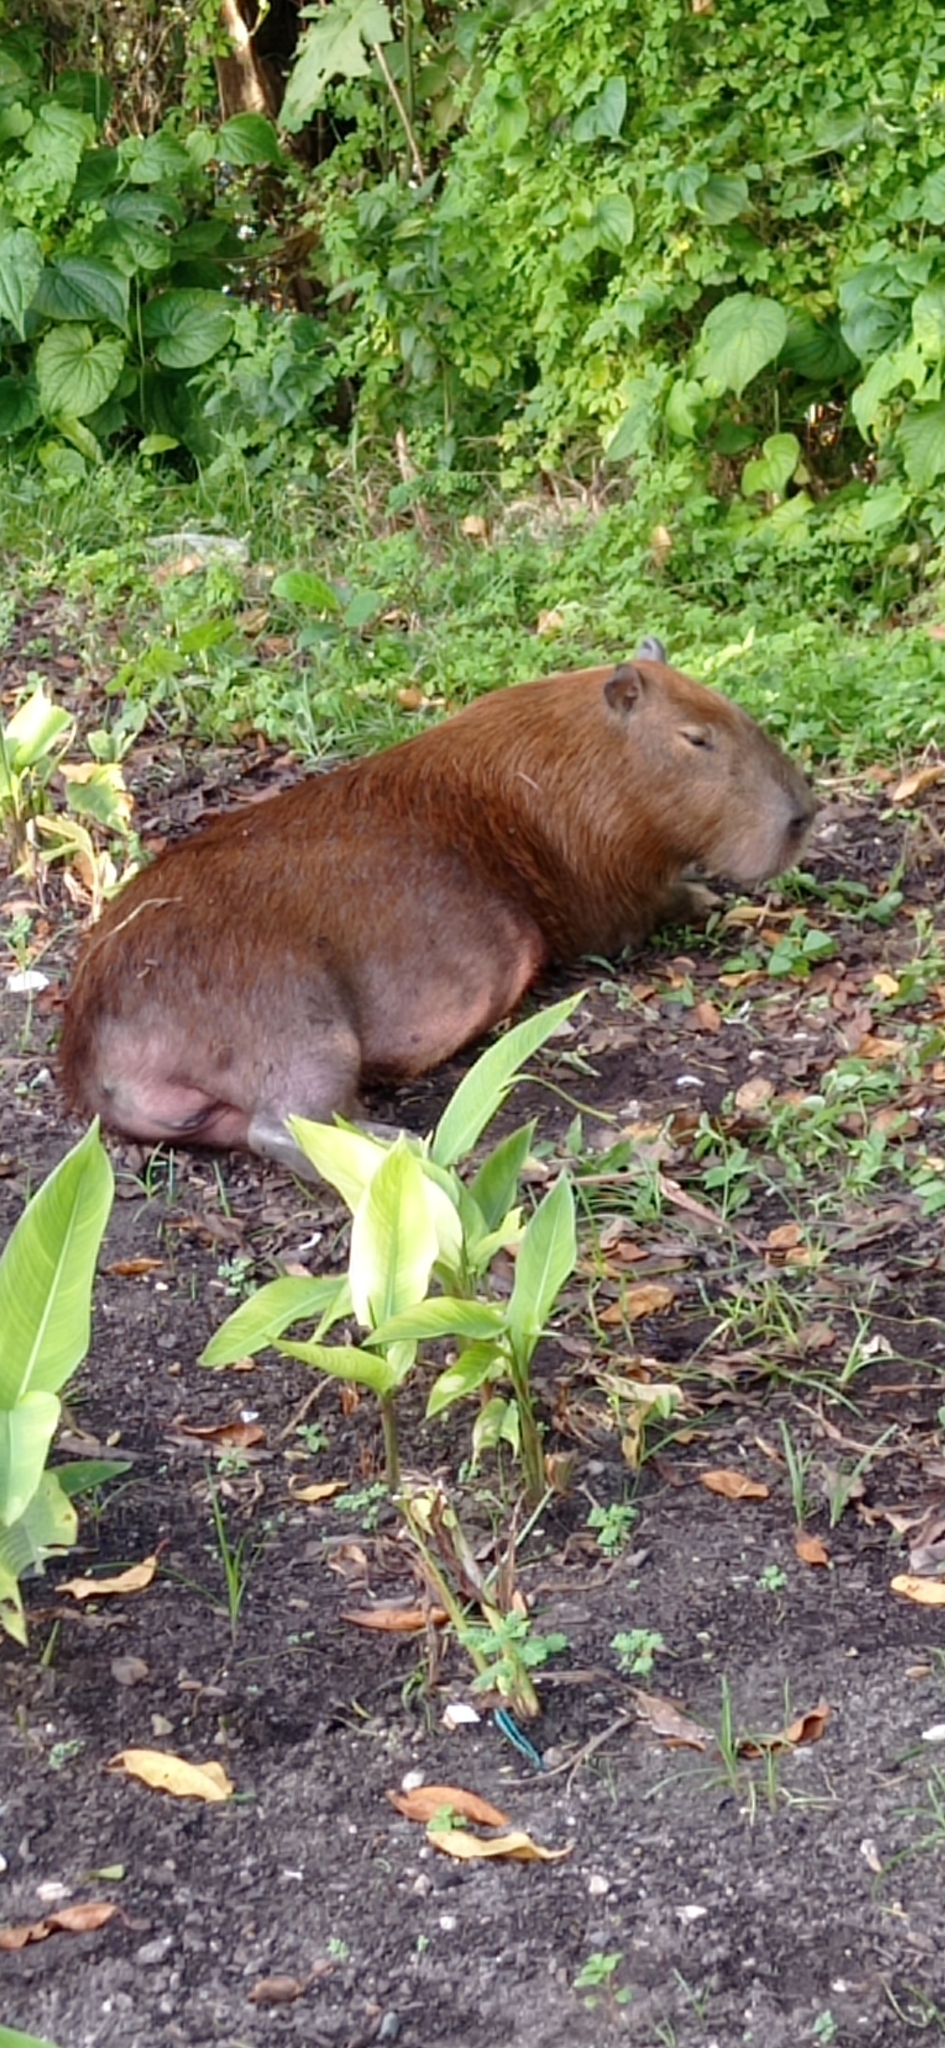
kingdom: Animalia
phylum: Chordata
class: Mammalia
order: Rodentia
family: Caviidae
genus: Hydrochoerus
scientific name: Hydrochoerus hydrochaeris
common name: Capybara
